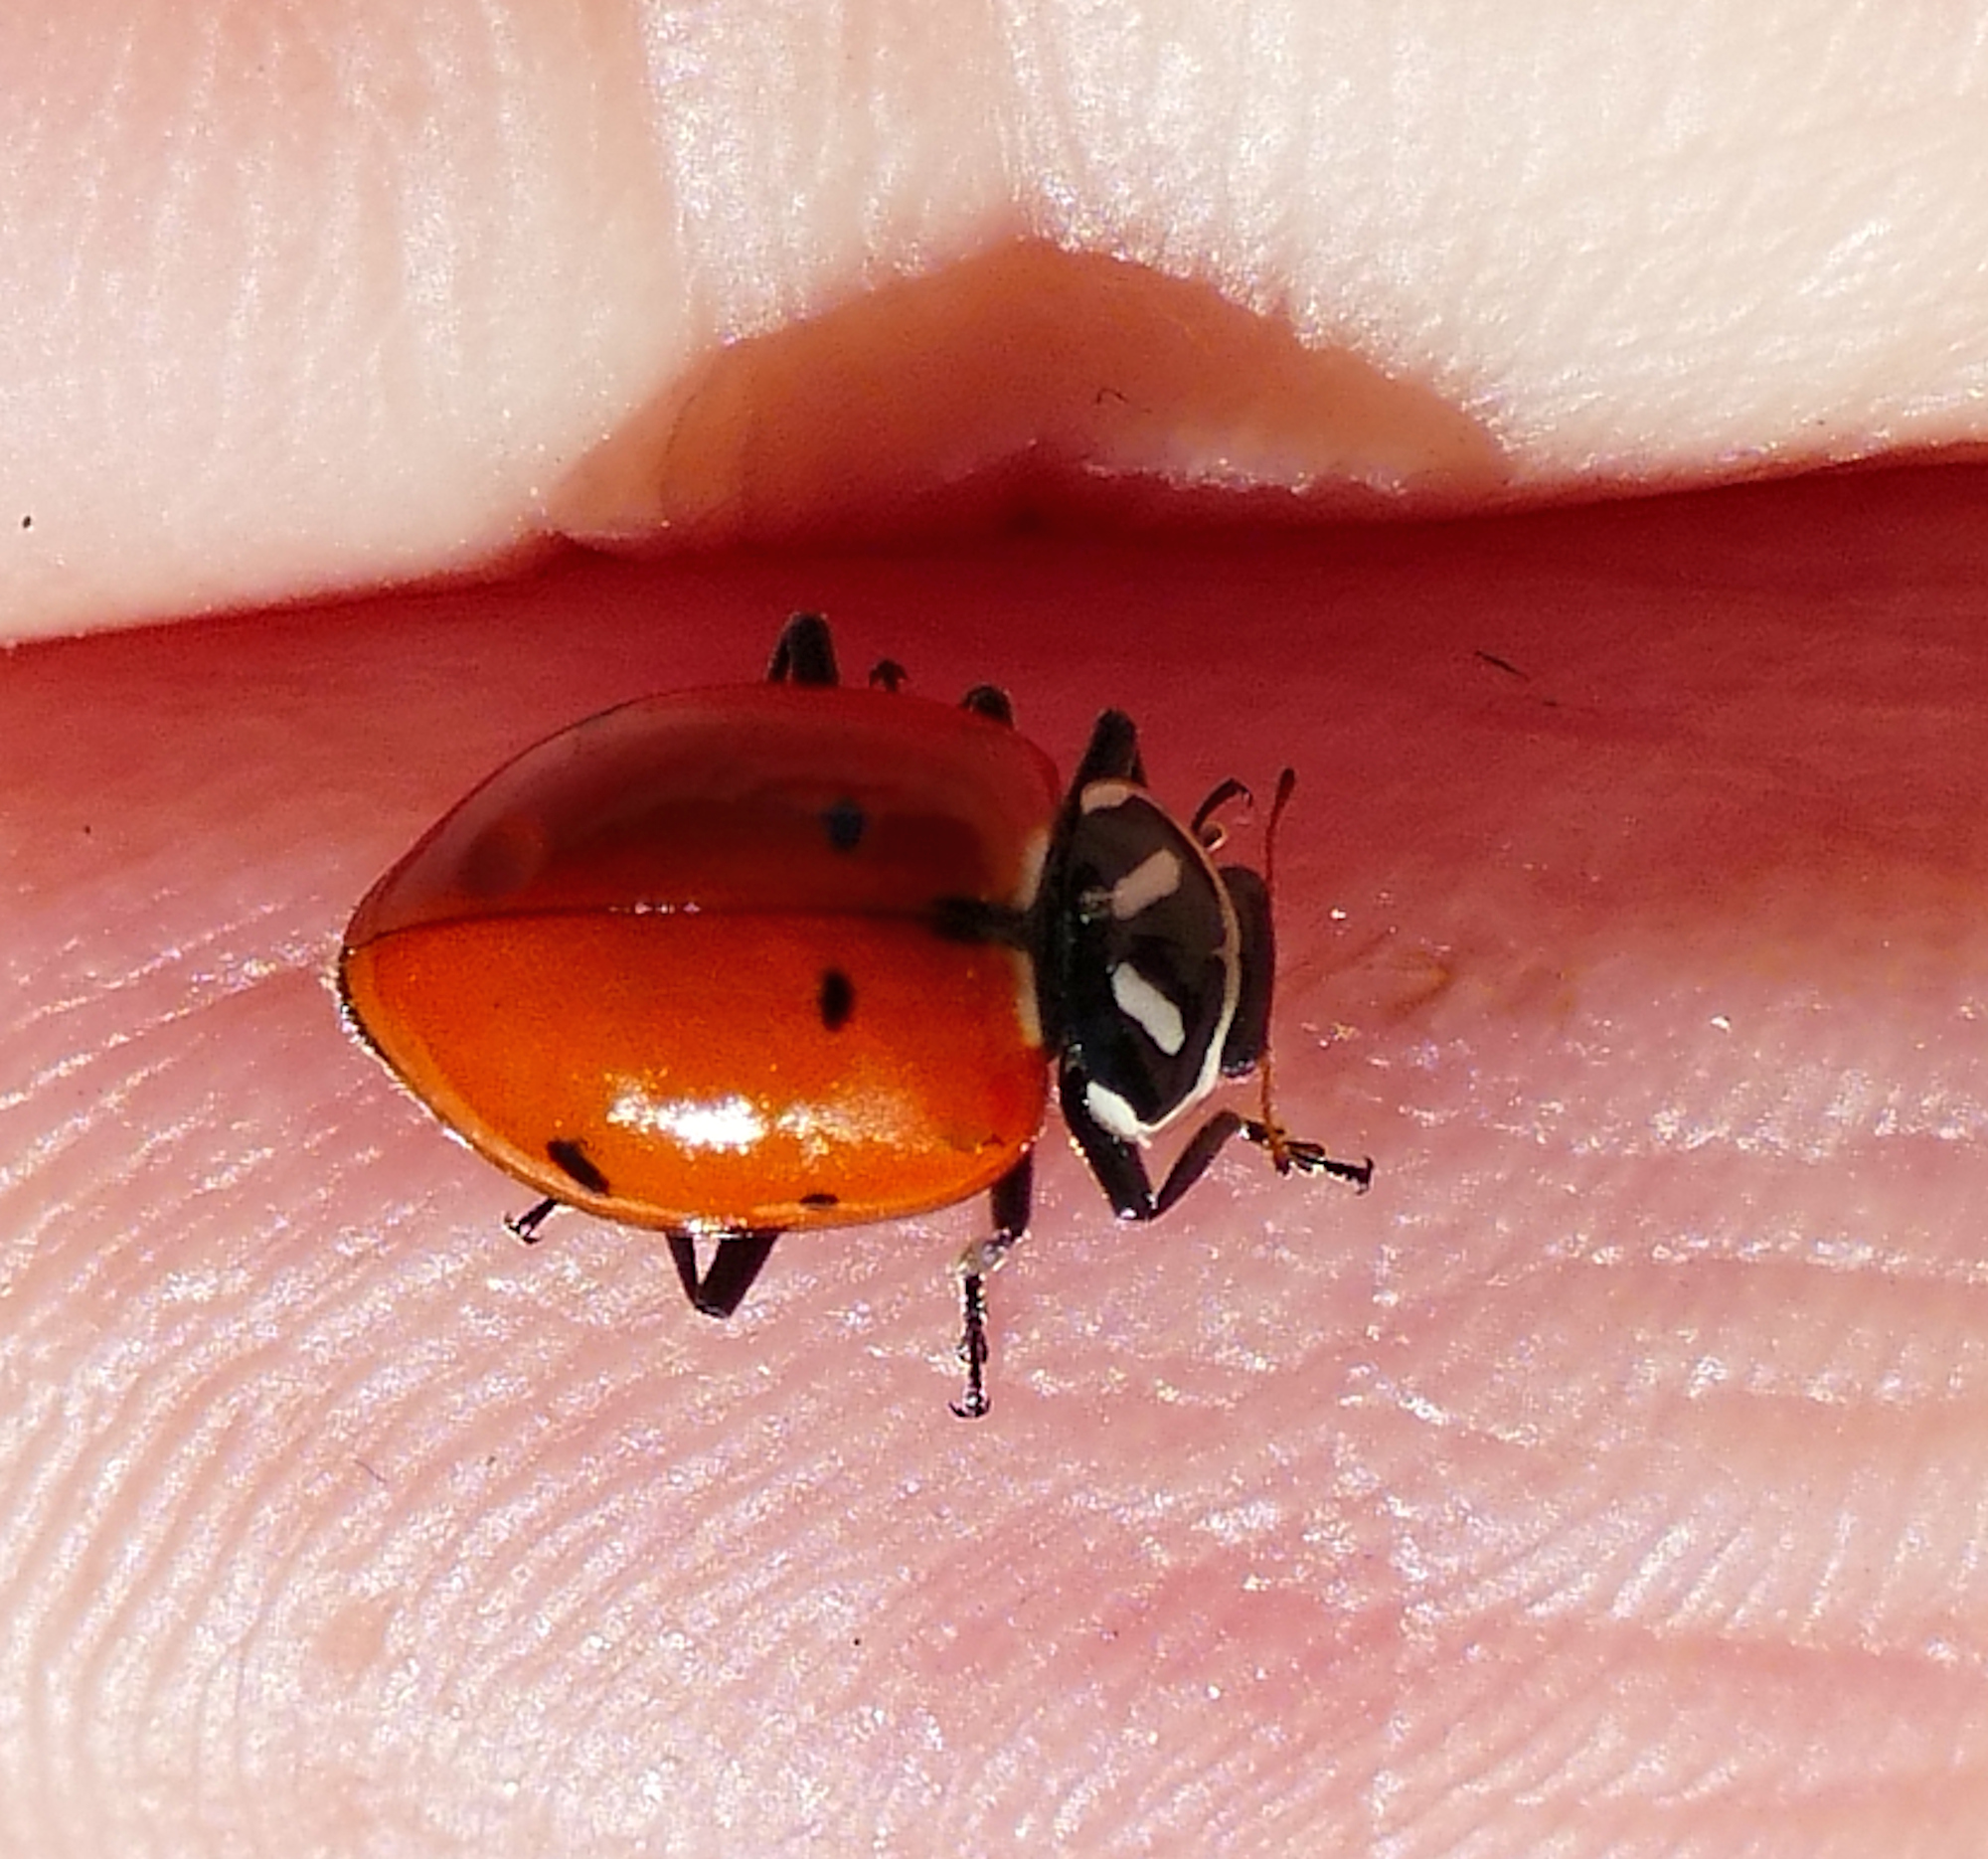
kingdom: Animalia
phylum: Arthropoda
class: Insecta
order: Coleoptera
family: Coccinellidae
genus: Hippodamia
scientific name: Hippodamia convergens
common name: Convergent lady beetle
